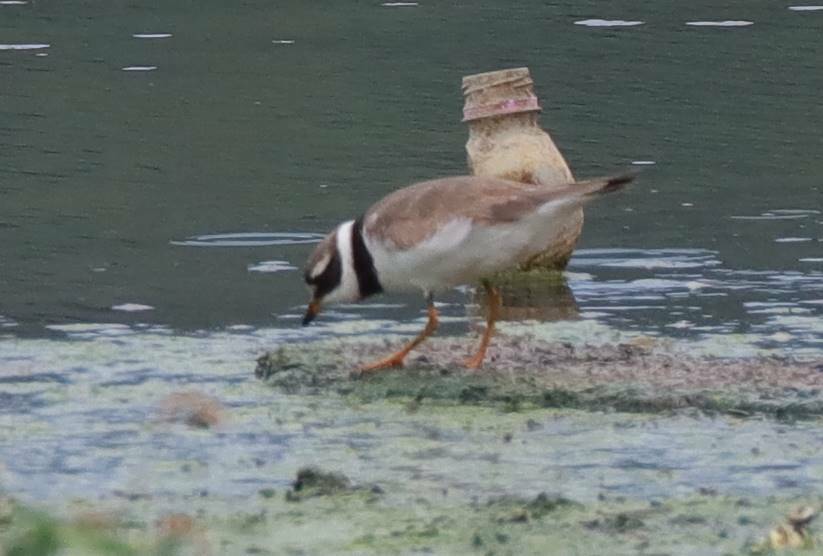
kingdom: Animalia
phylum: Chordata
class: Aves
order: Charadriiformes
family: Charadriidae
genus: Charadrius
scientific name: Charadrius hiaticula
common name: Common ringed plover
